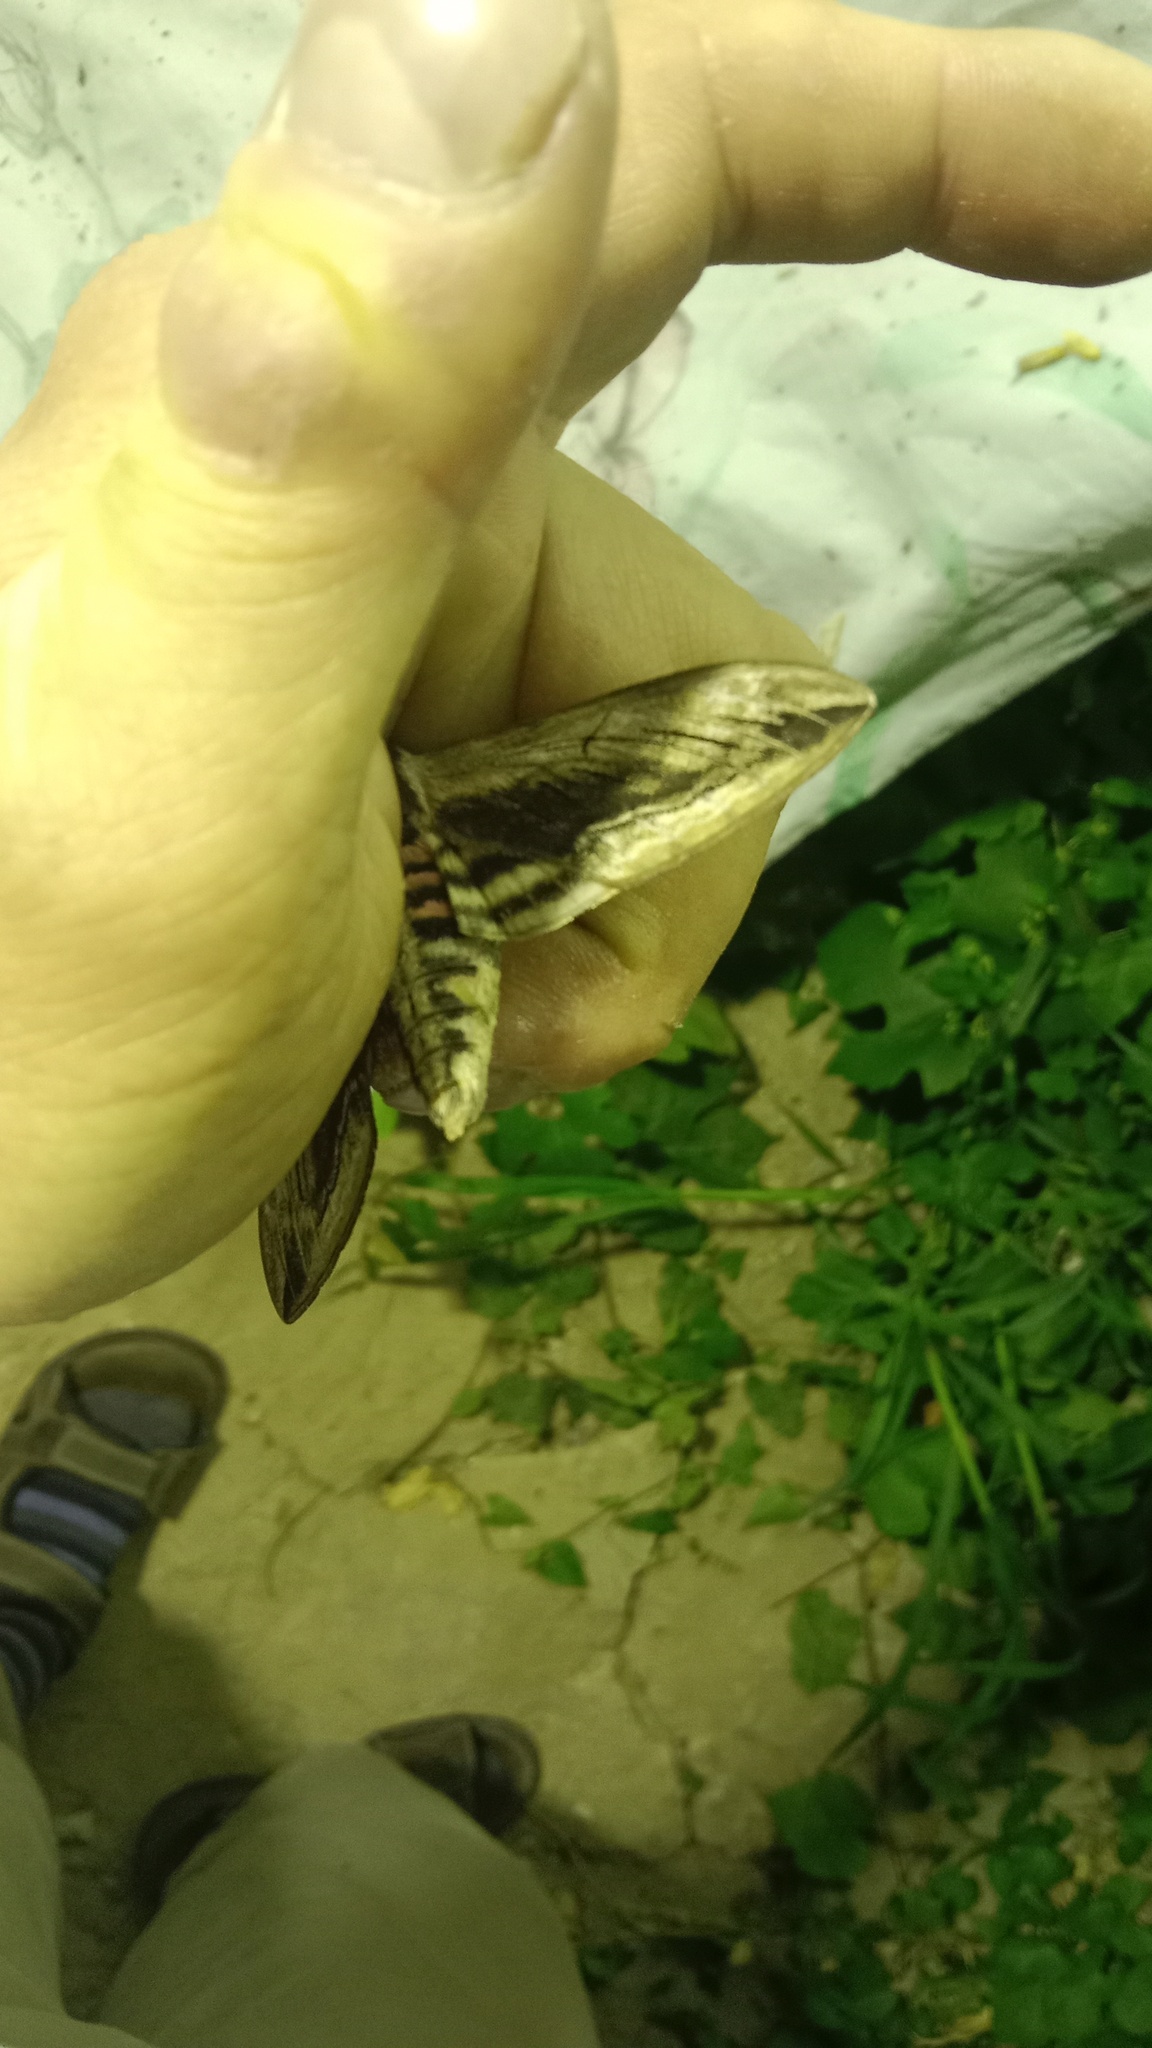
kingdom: Animalia
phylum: Arthropoda
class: Insecta
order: Lepidoptera
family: Sphingidae
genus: Sphinx
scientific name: Sphinx ligustri
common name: Privet hawk-moth
